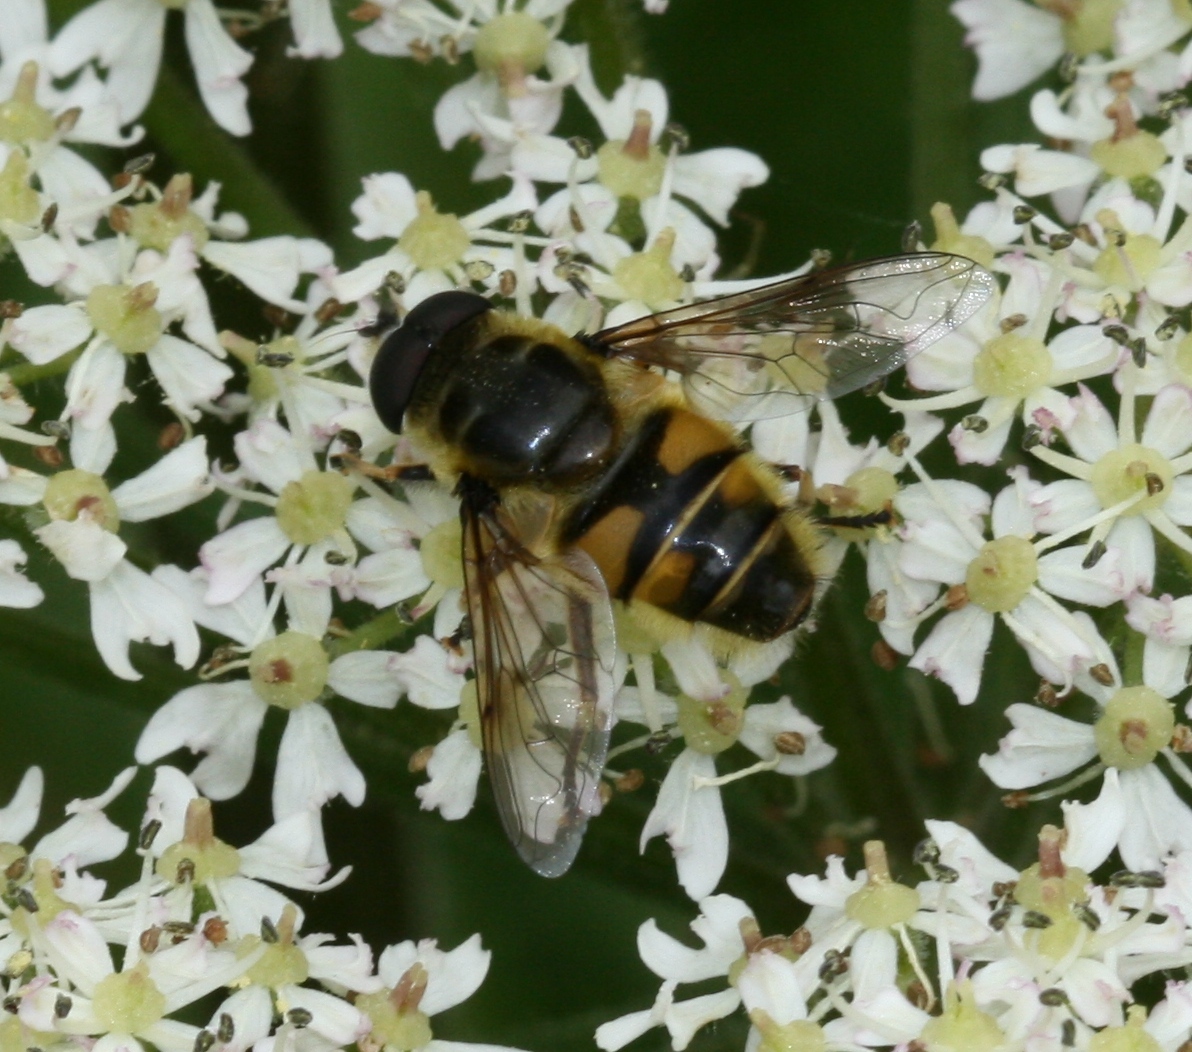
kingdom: Animalia
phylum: Arthropoda
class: Insecta
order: Diptera
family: Syrphidae
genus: Myathropa
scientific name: Myathropa florea
